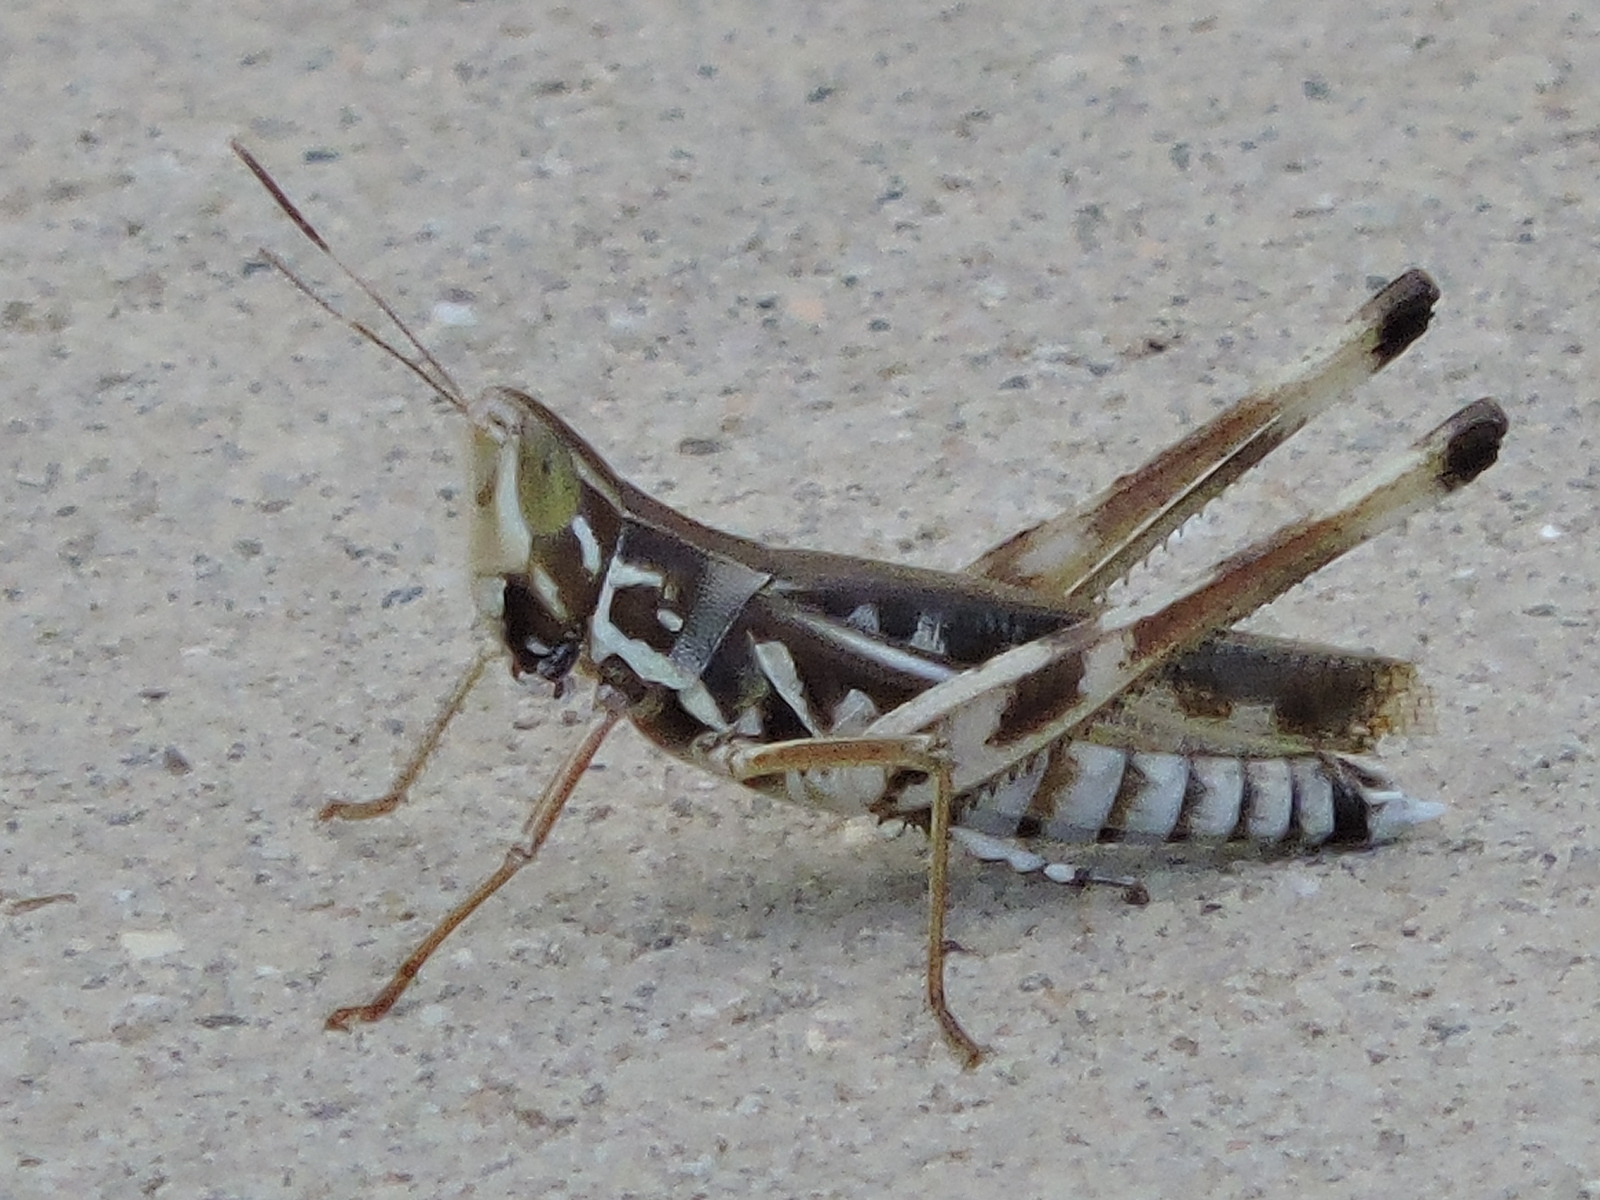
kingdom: Animalia
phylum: Arthropoda
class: Insecta
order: Orthoptera
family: Acrididae
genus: Syrbula
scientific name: Syrbula admirabilis
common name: Handsome grasshopper
